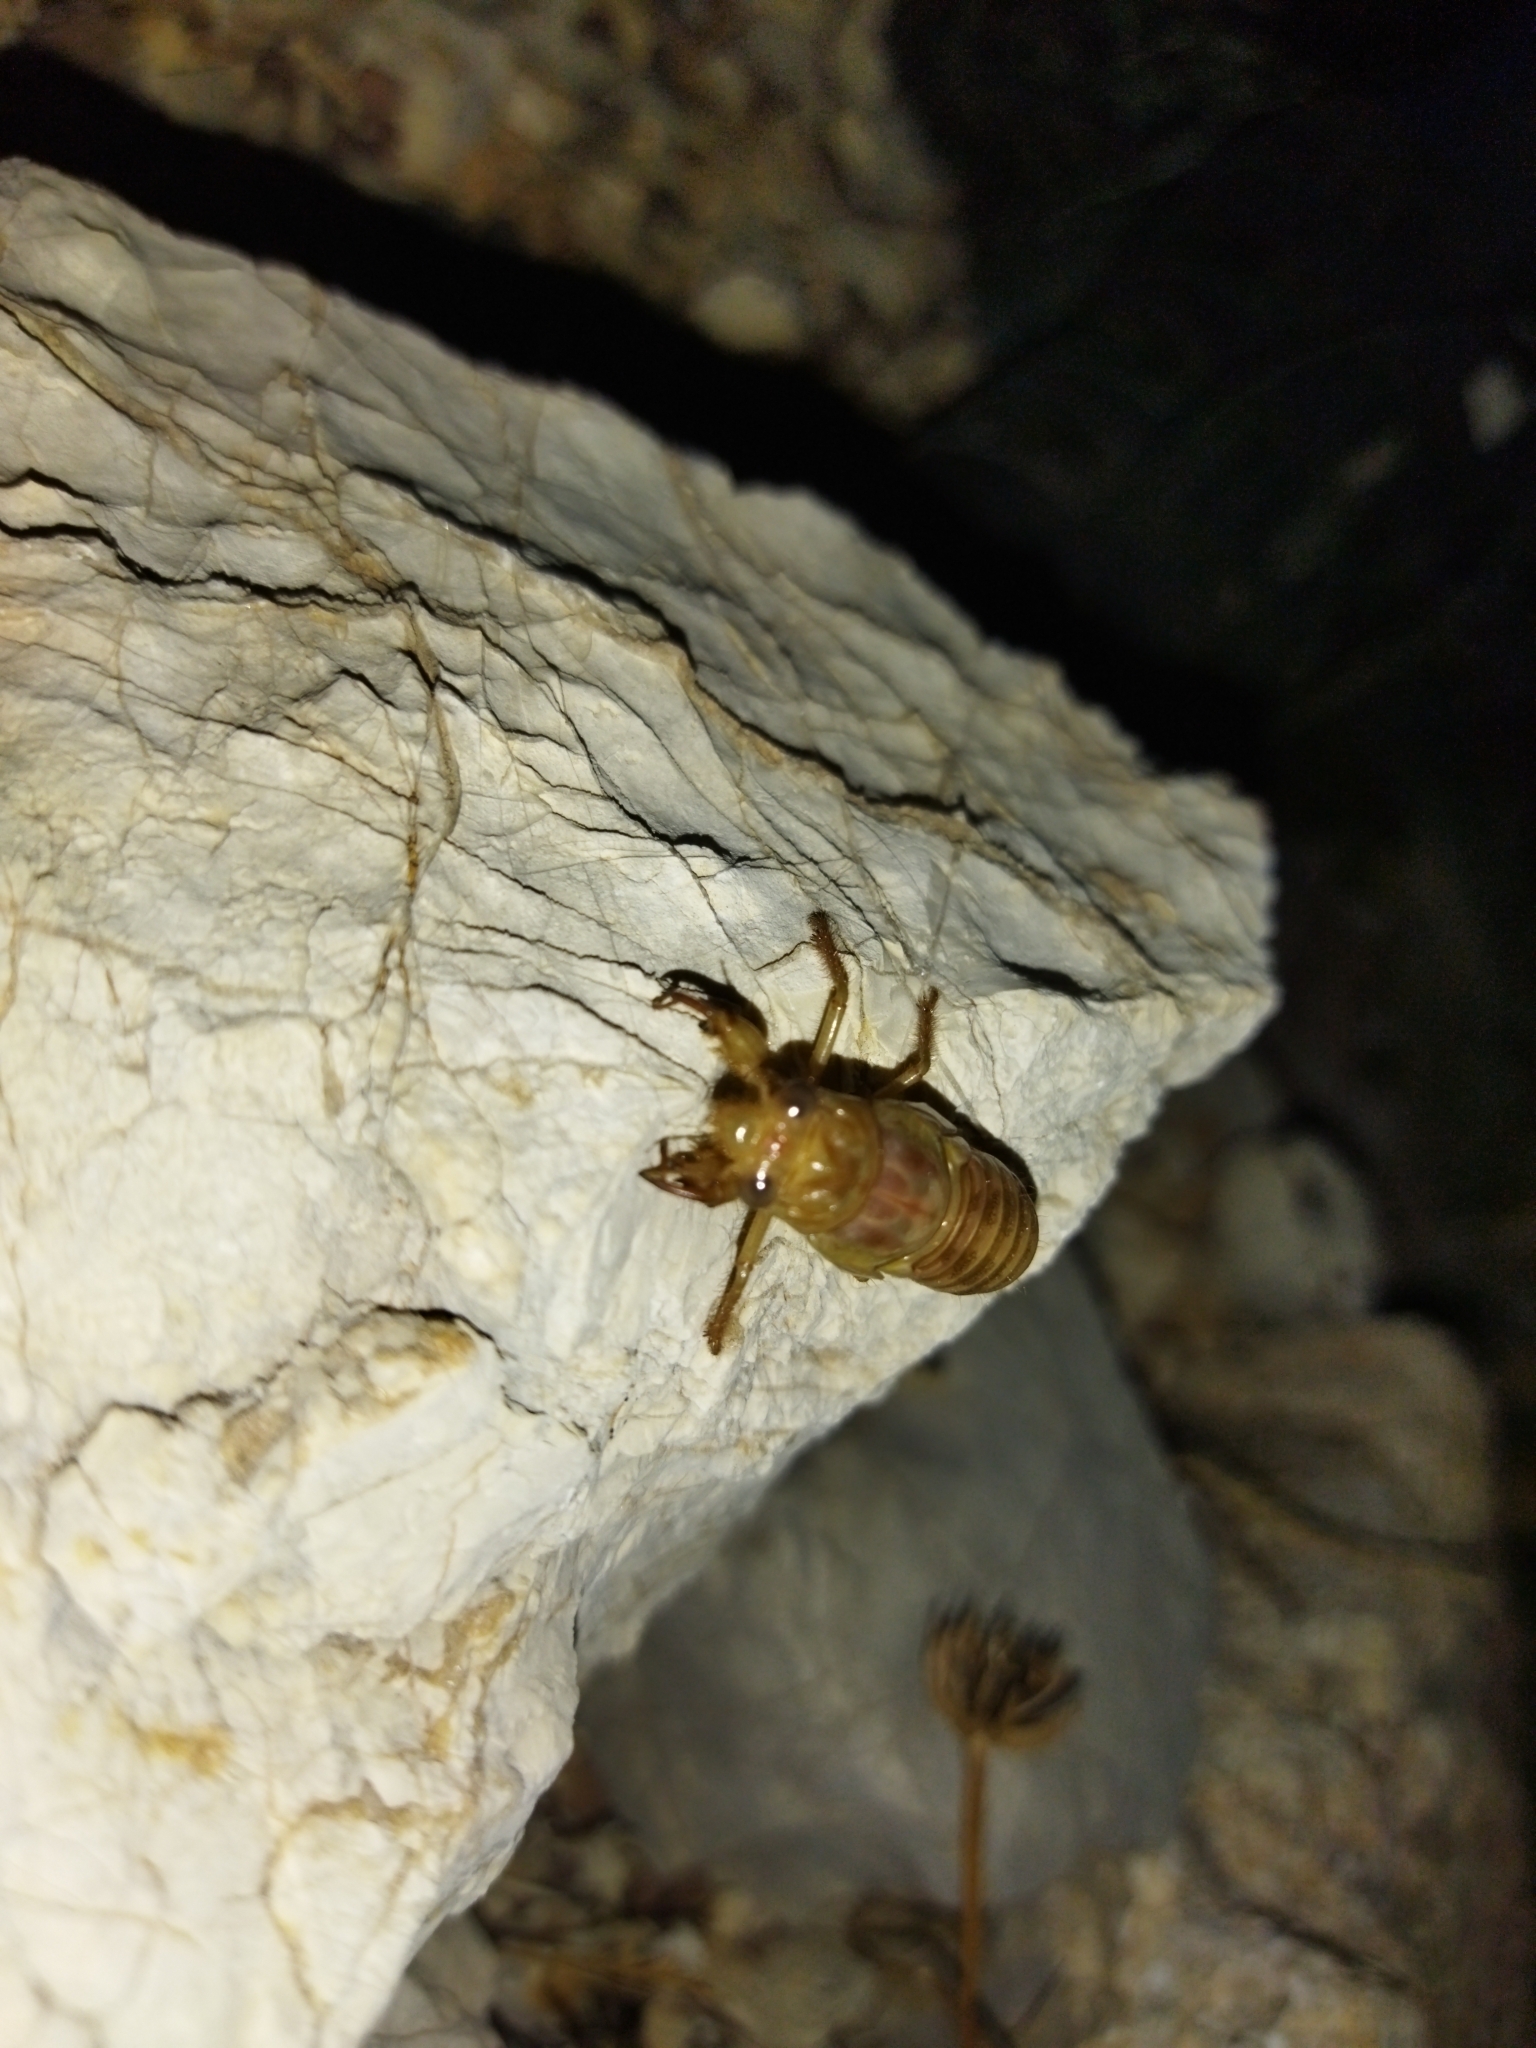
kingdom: Animalia
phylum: Arthropoda
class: Insecta
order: Hemiptera
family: Cicadidae
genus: Cicada
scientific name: Cicada orni
